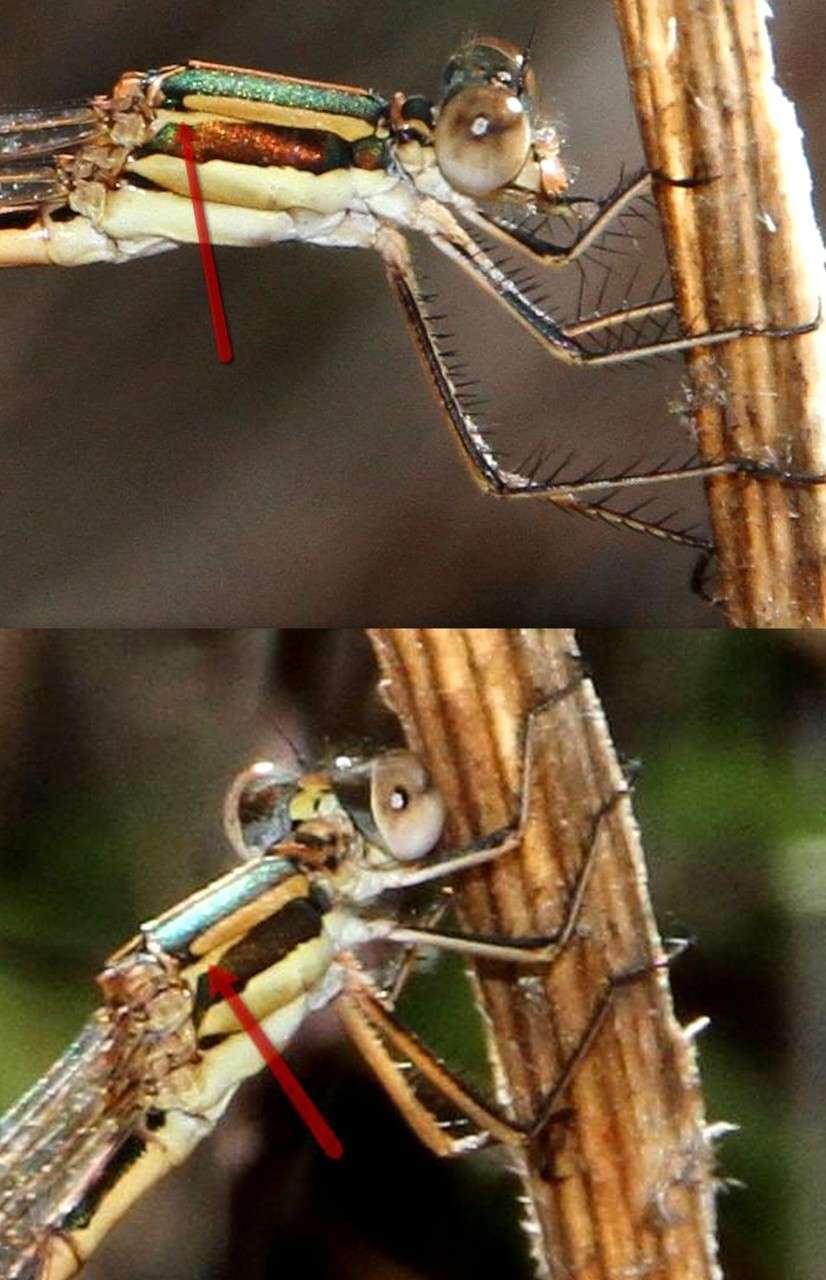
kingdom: Animalia
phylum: Arthropoda
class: Insecta
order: Odonata
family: Lestidae
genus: Austrolestes
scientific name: Austrolestes analis
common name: Slender ringtail
